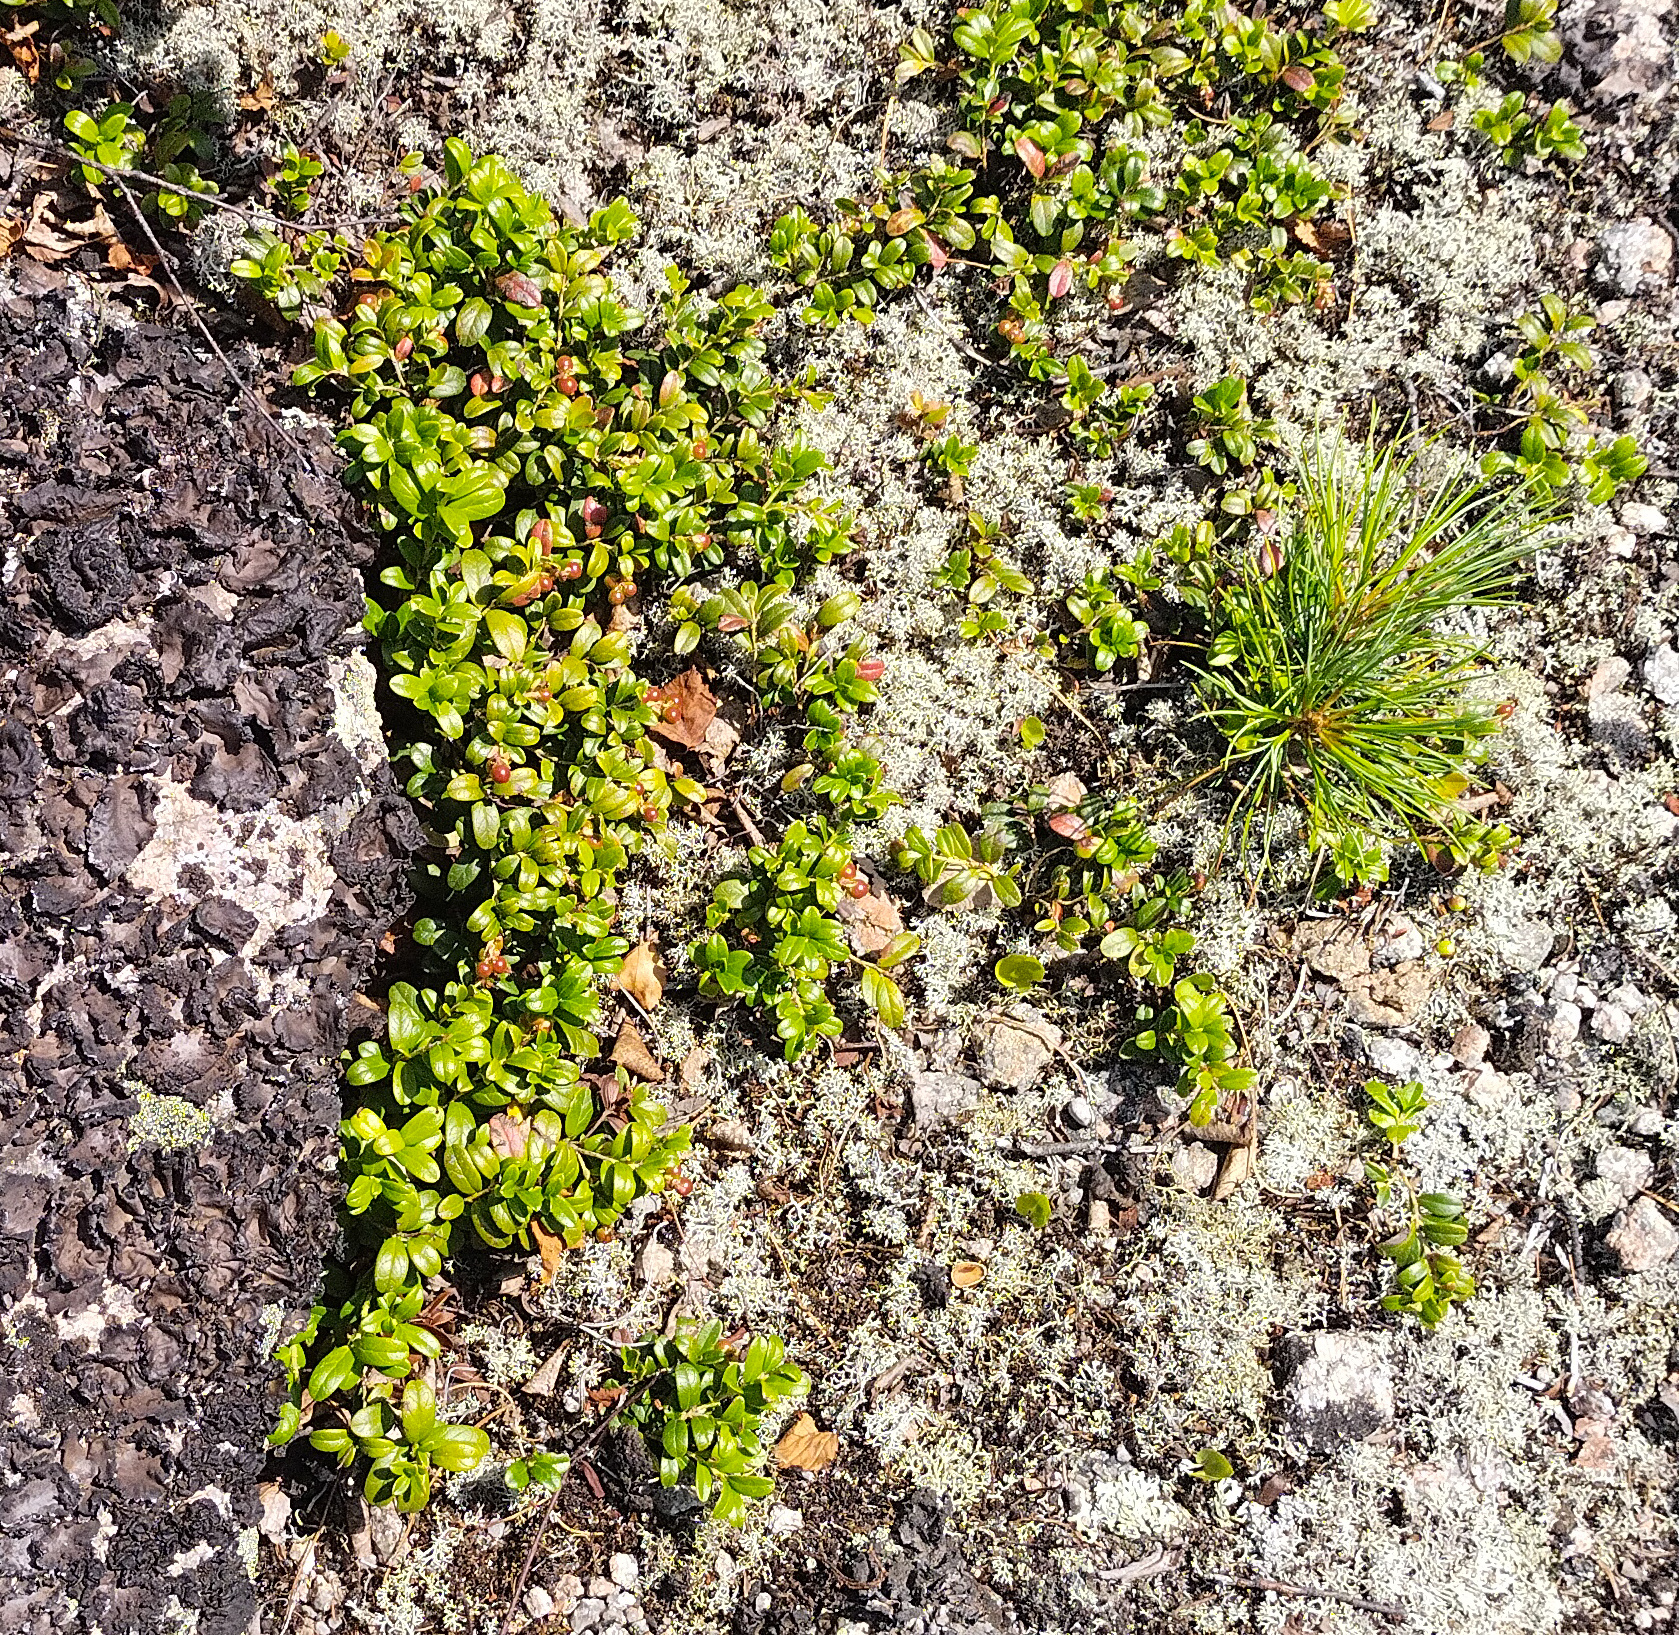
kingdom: Plantae
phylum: Tracheophyta
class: Magnoliopsida
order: Ericales
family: Ericaceae
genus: Vaccinium
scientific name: Vaccinium vitis-idaea
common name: Cowberry
